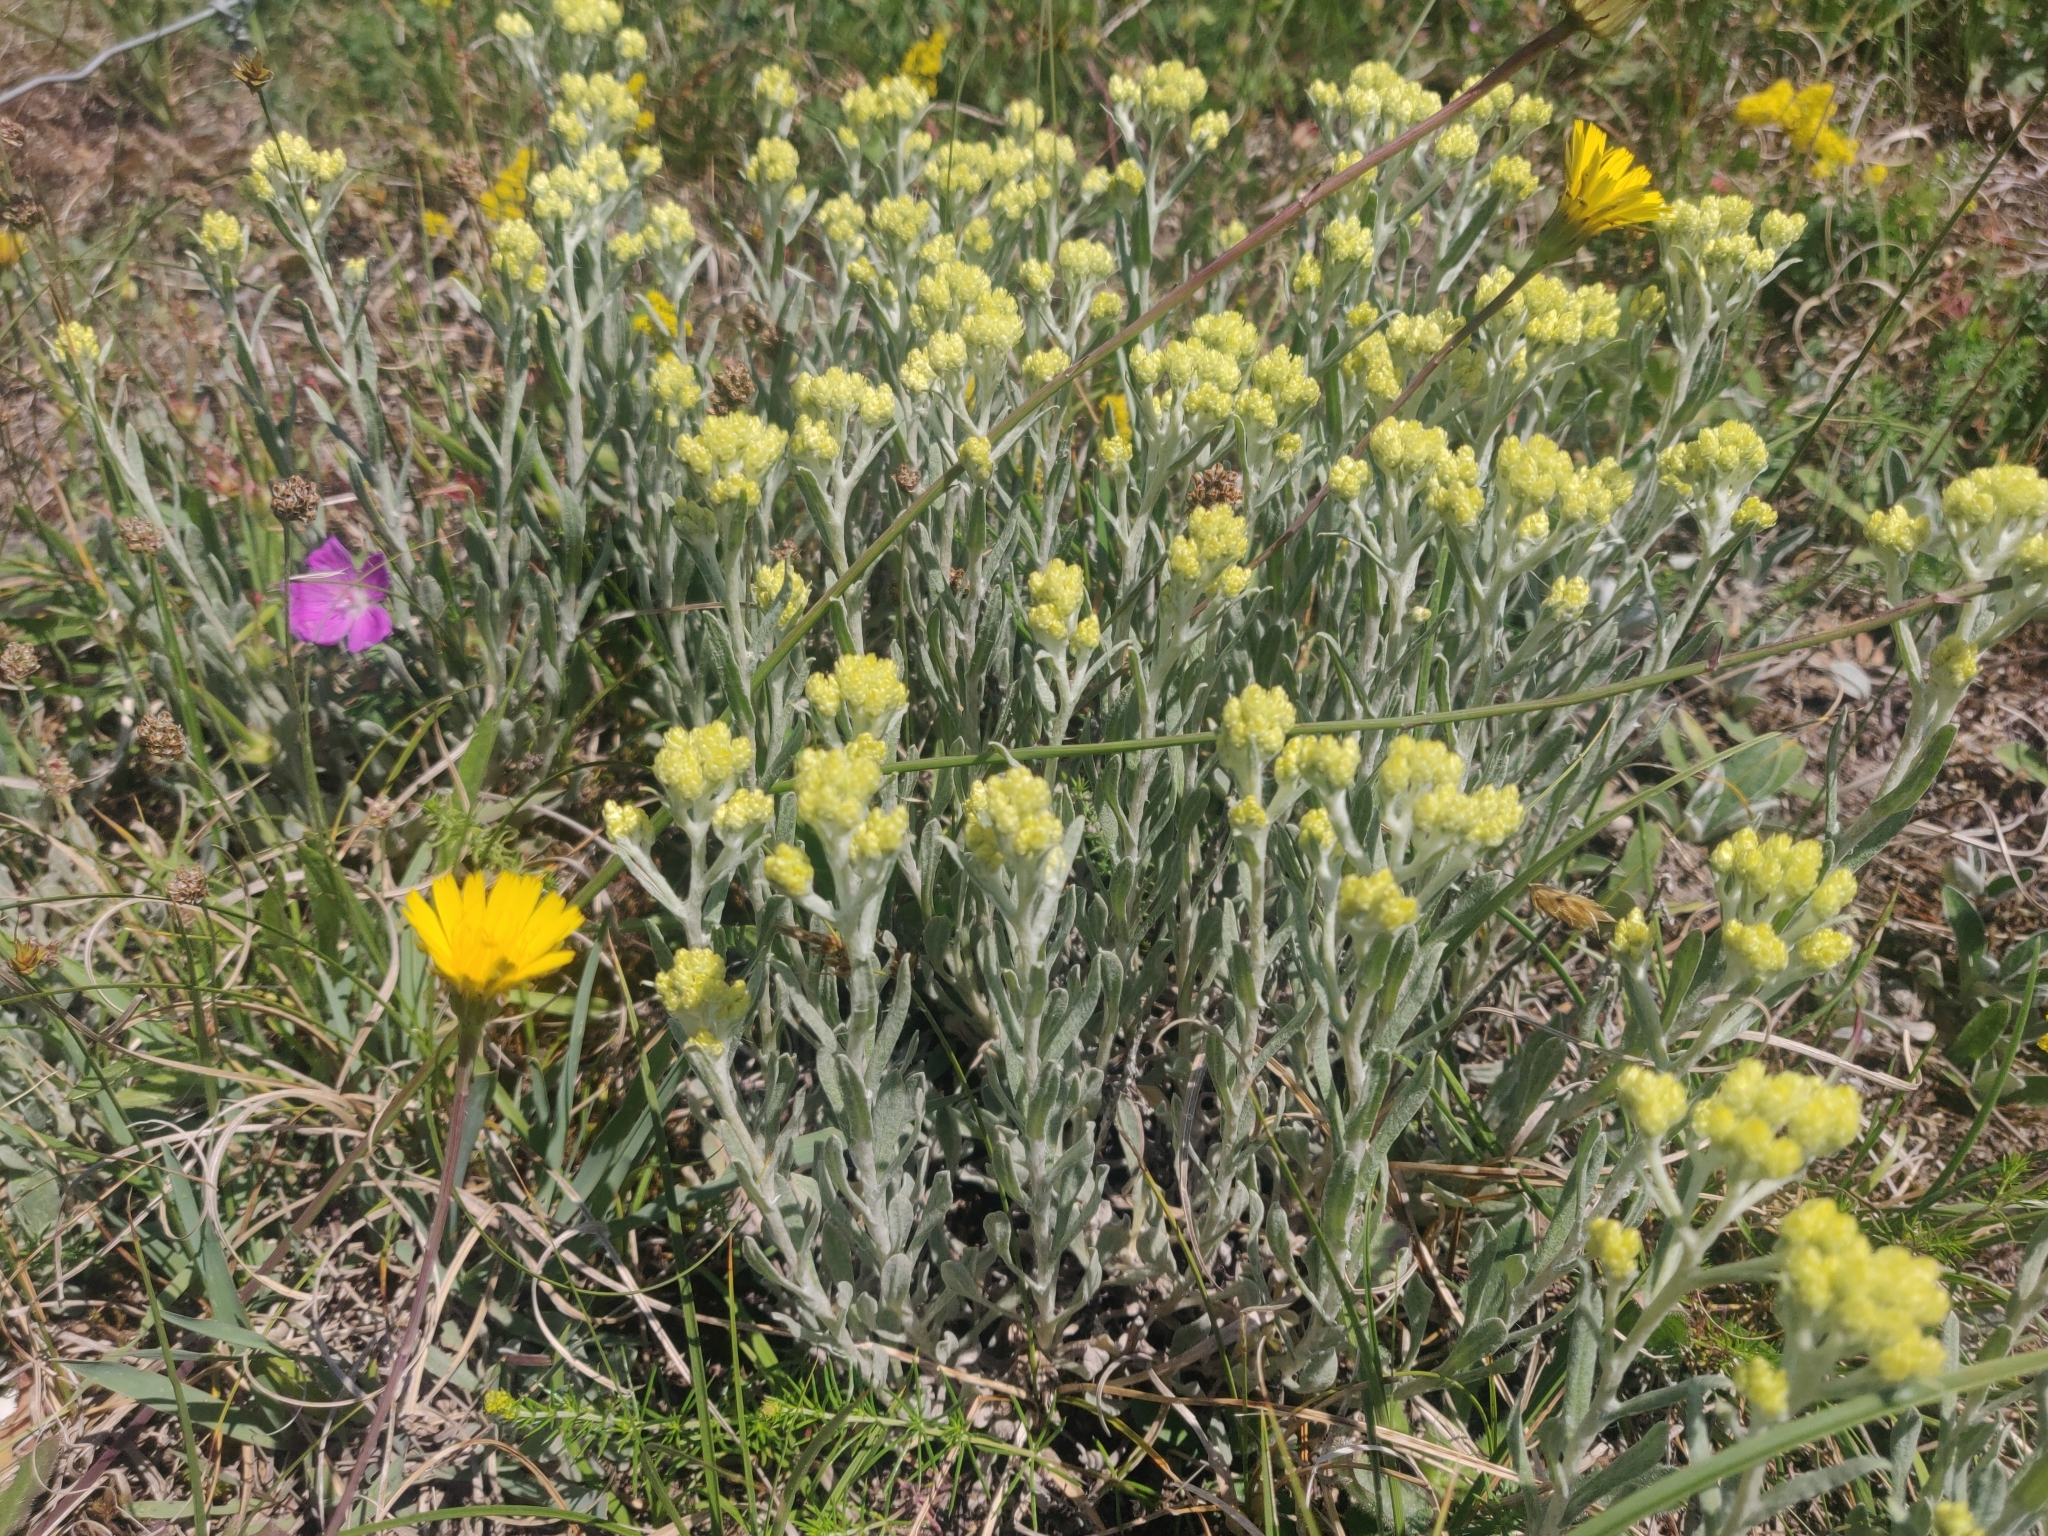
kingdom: Plantae
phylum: Tracheophyta
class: Magnoliopsida
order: Asterales
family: Asteraceae
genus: Helichrysum
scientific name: Helichrysum arenarium
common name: Strawflower
